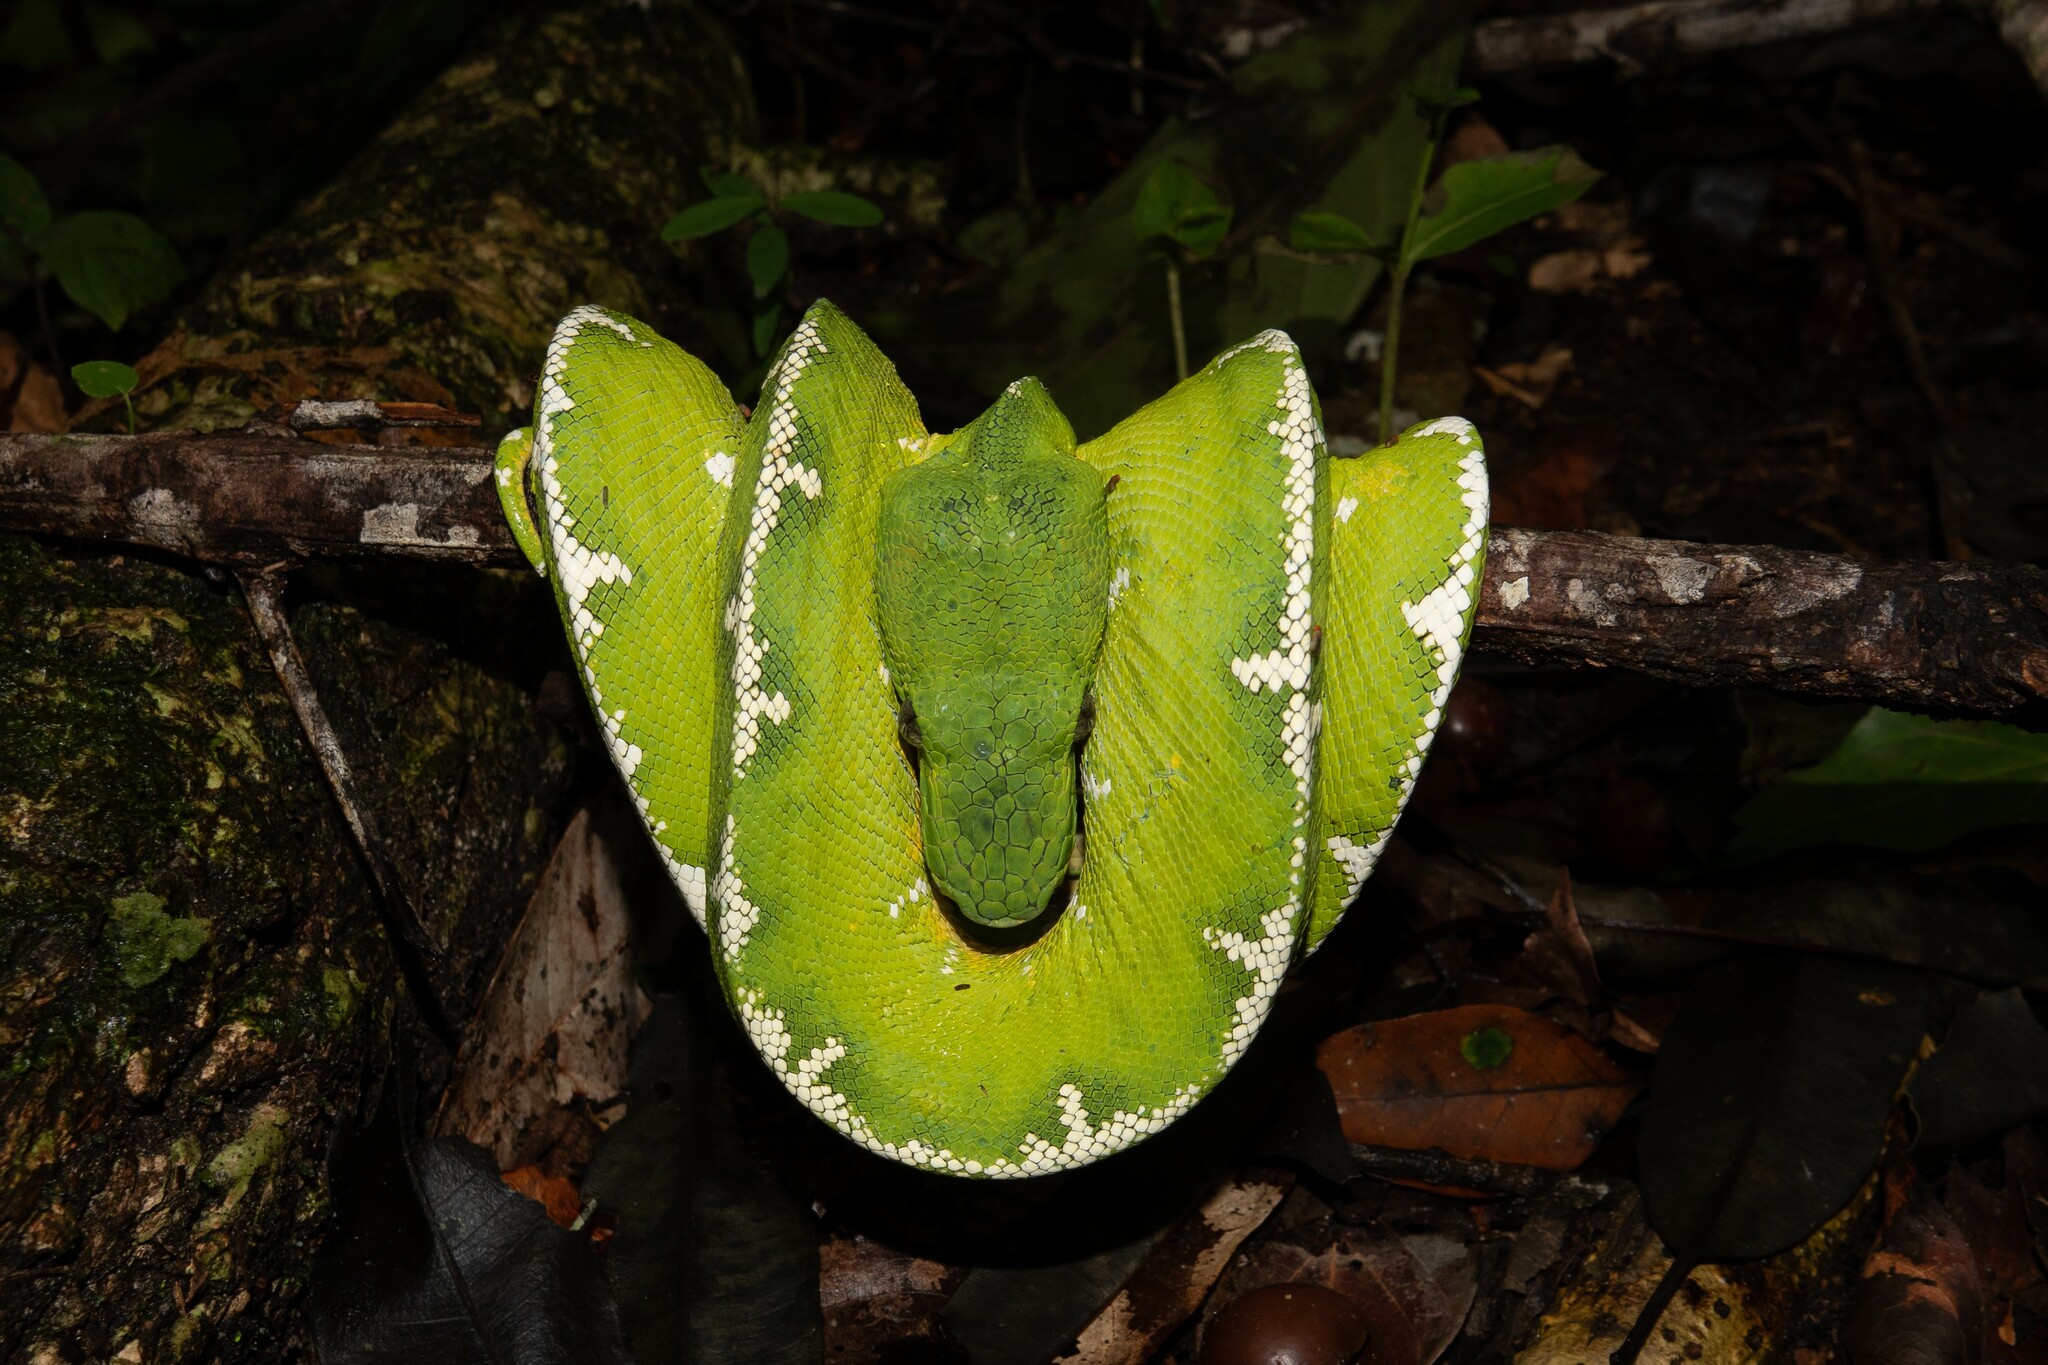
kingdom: Animalia
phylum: Chordata
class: Squamata
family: Boidae
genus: Corallus
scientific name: Corallus batesii
